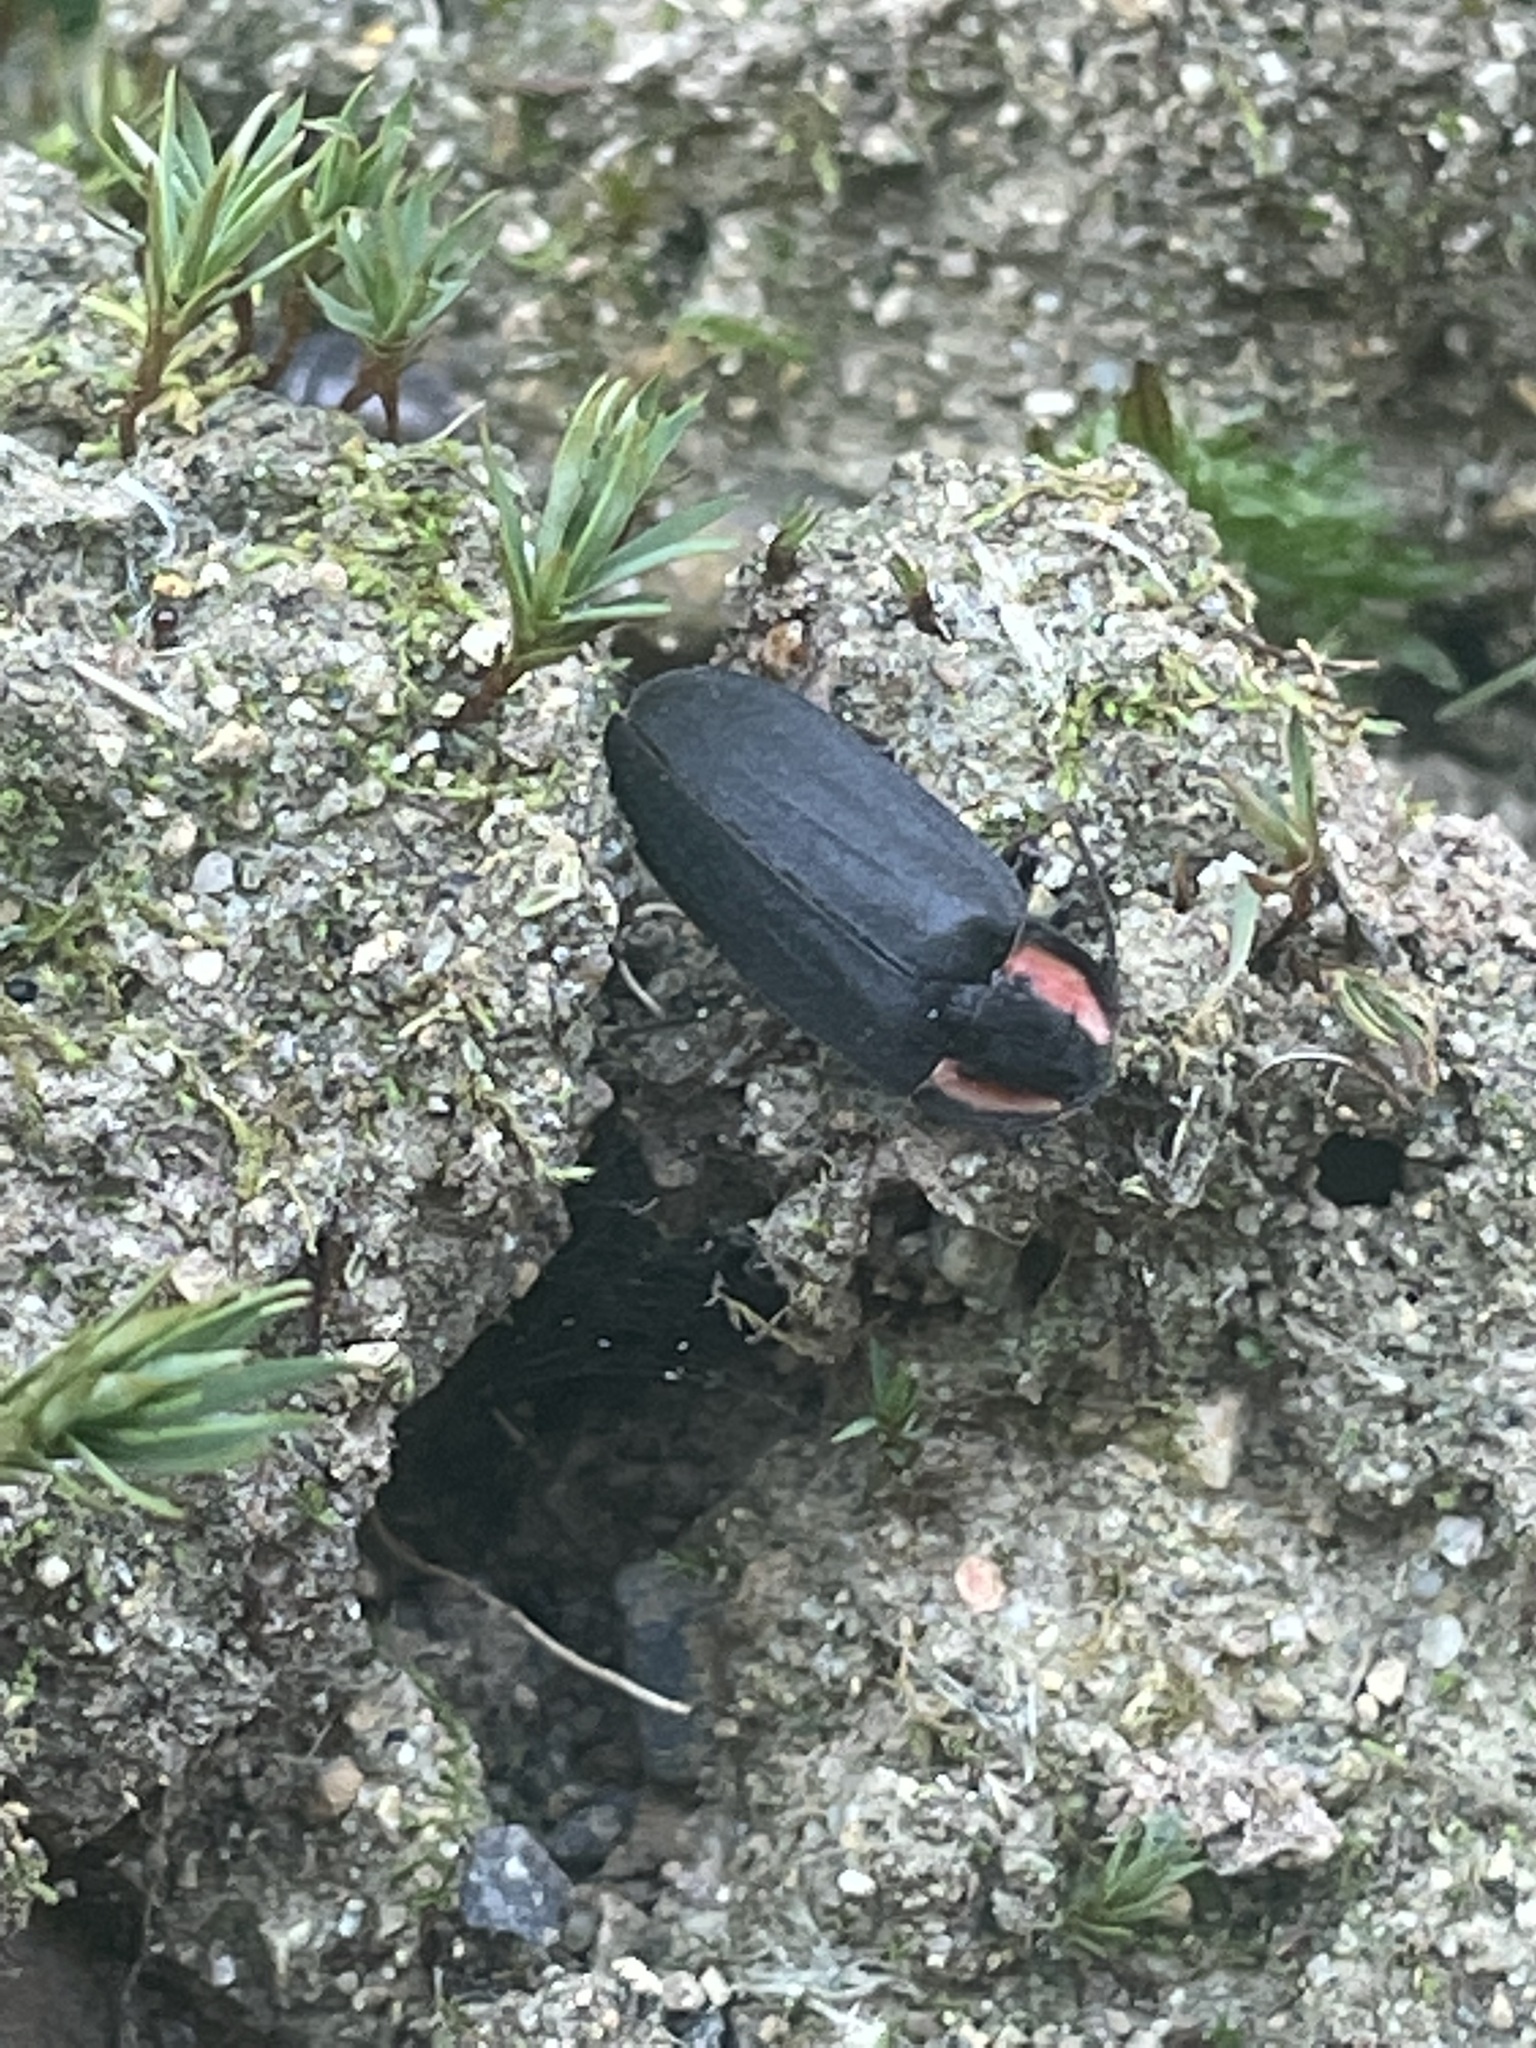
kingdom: Animalia
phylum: Arthropoda
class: Insecta
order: Coleoptera
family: Lampyridae
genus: Photinus
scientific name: Photinus hatchi
